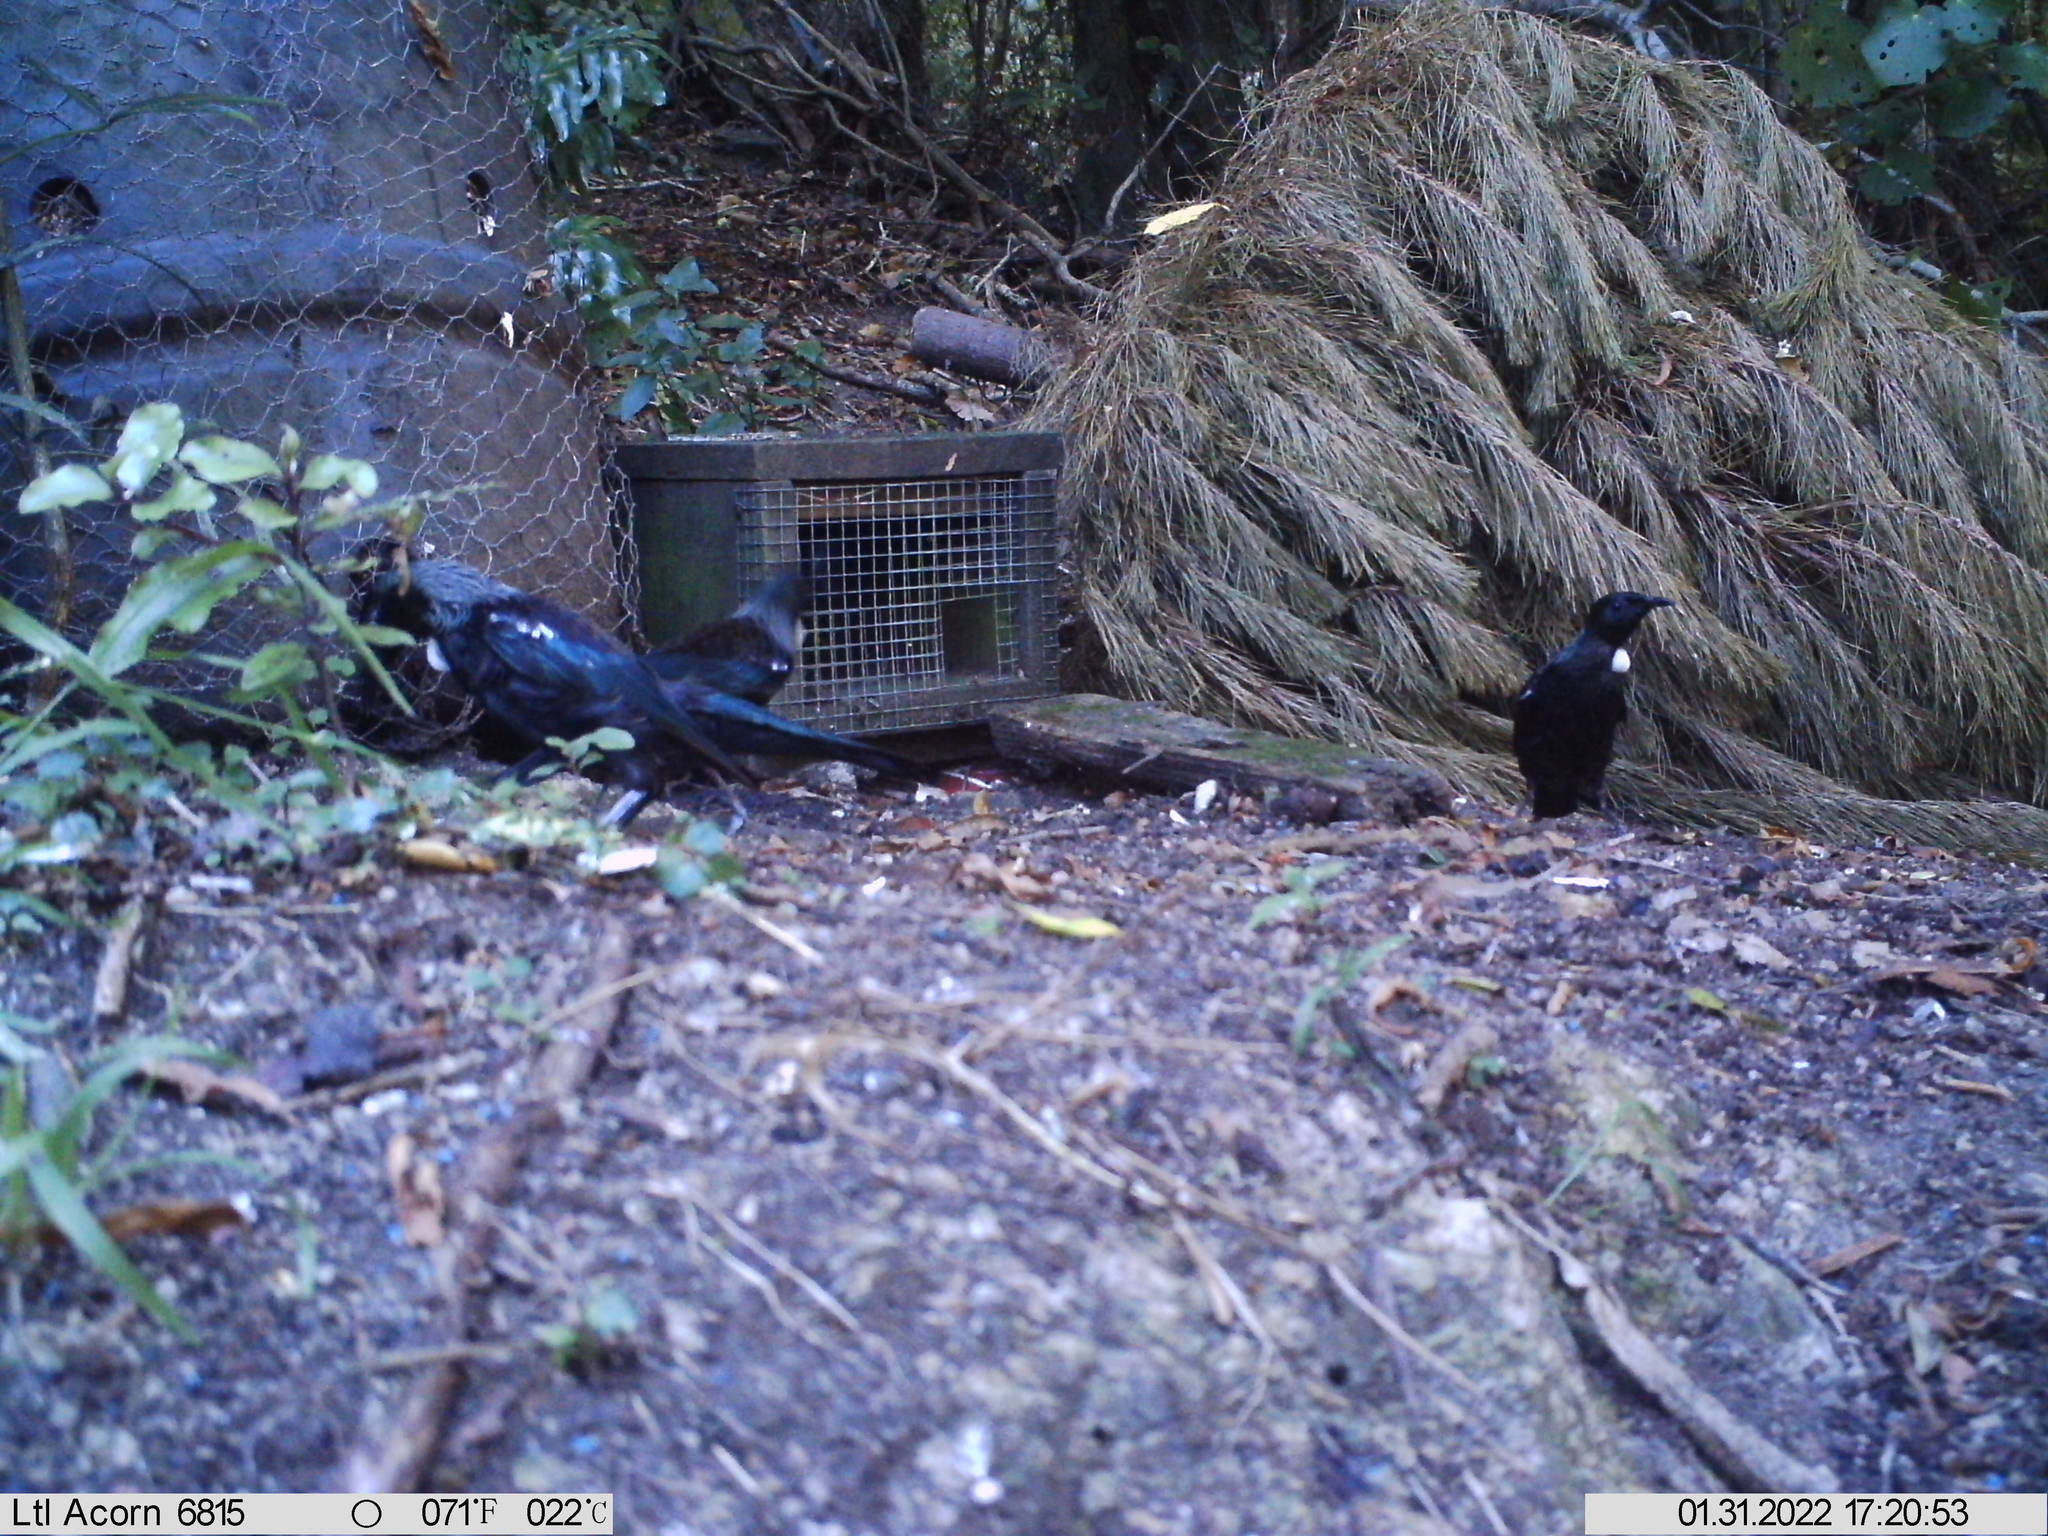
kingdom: Animalia
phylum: Chordata
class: Aves
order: Passeriformes
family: Meliphagidae
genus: Prosthemadera
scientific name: Prosthemadera novaeseelandiae
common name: Tui
